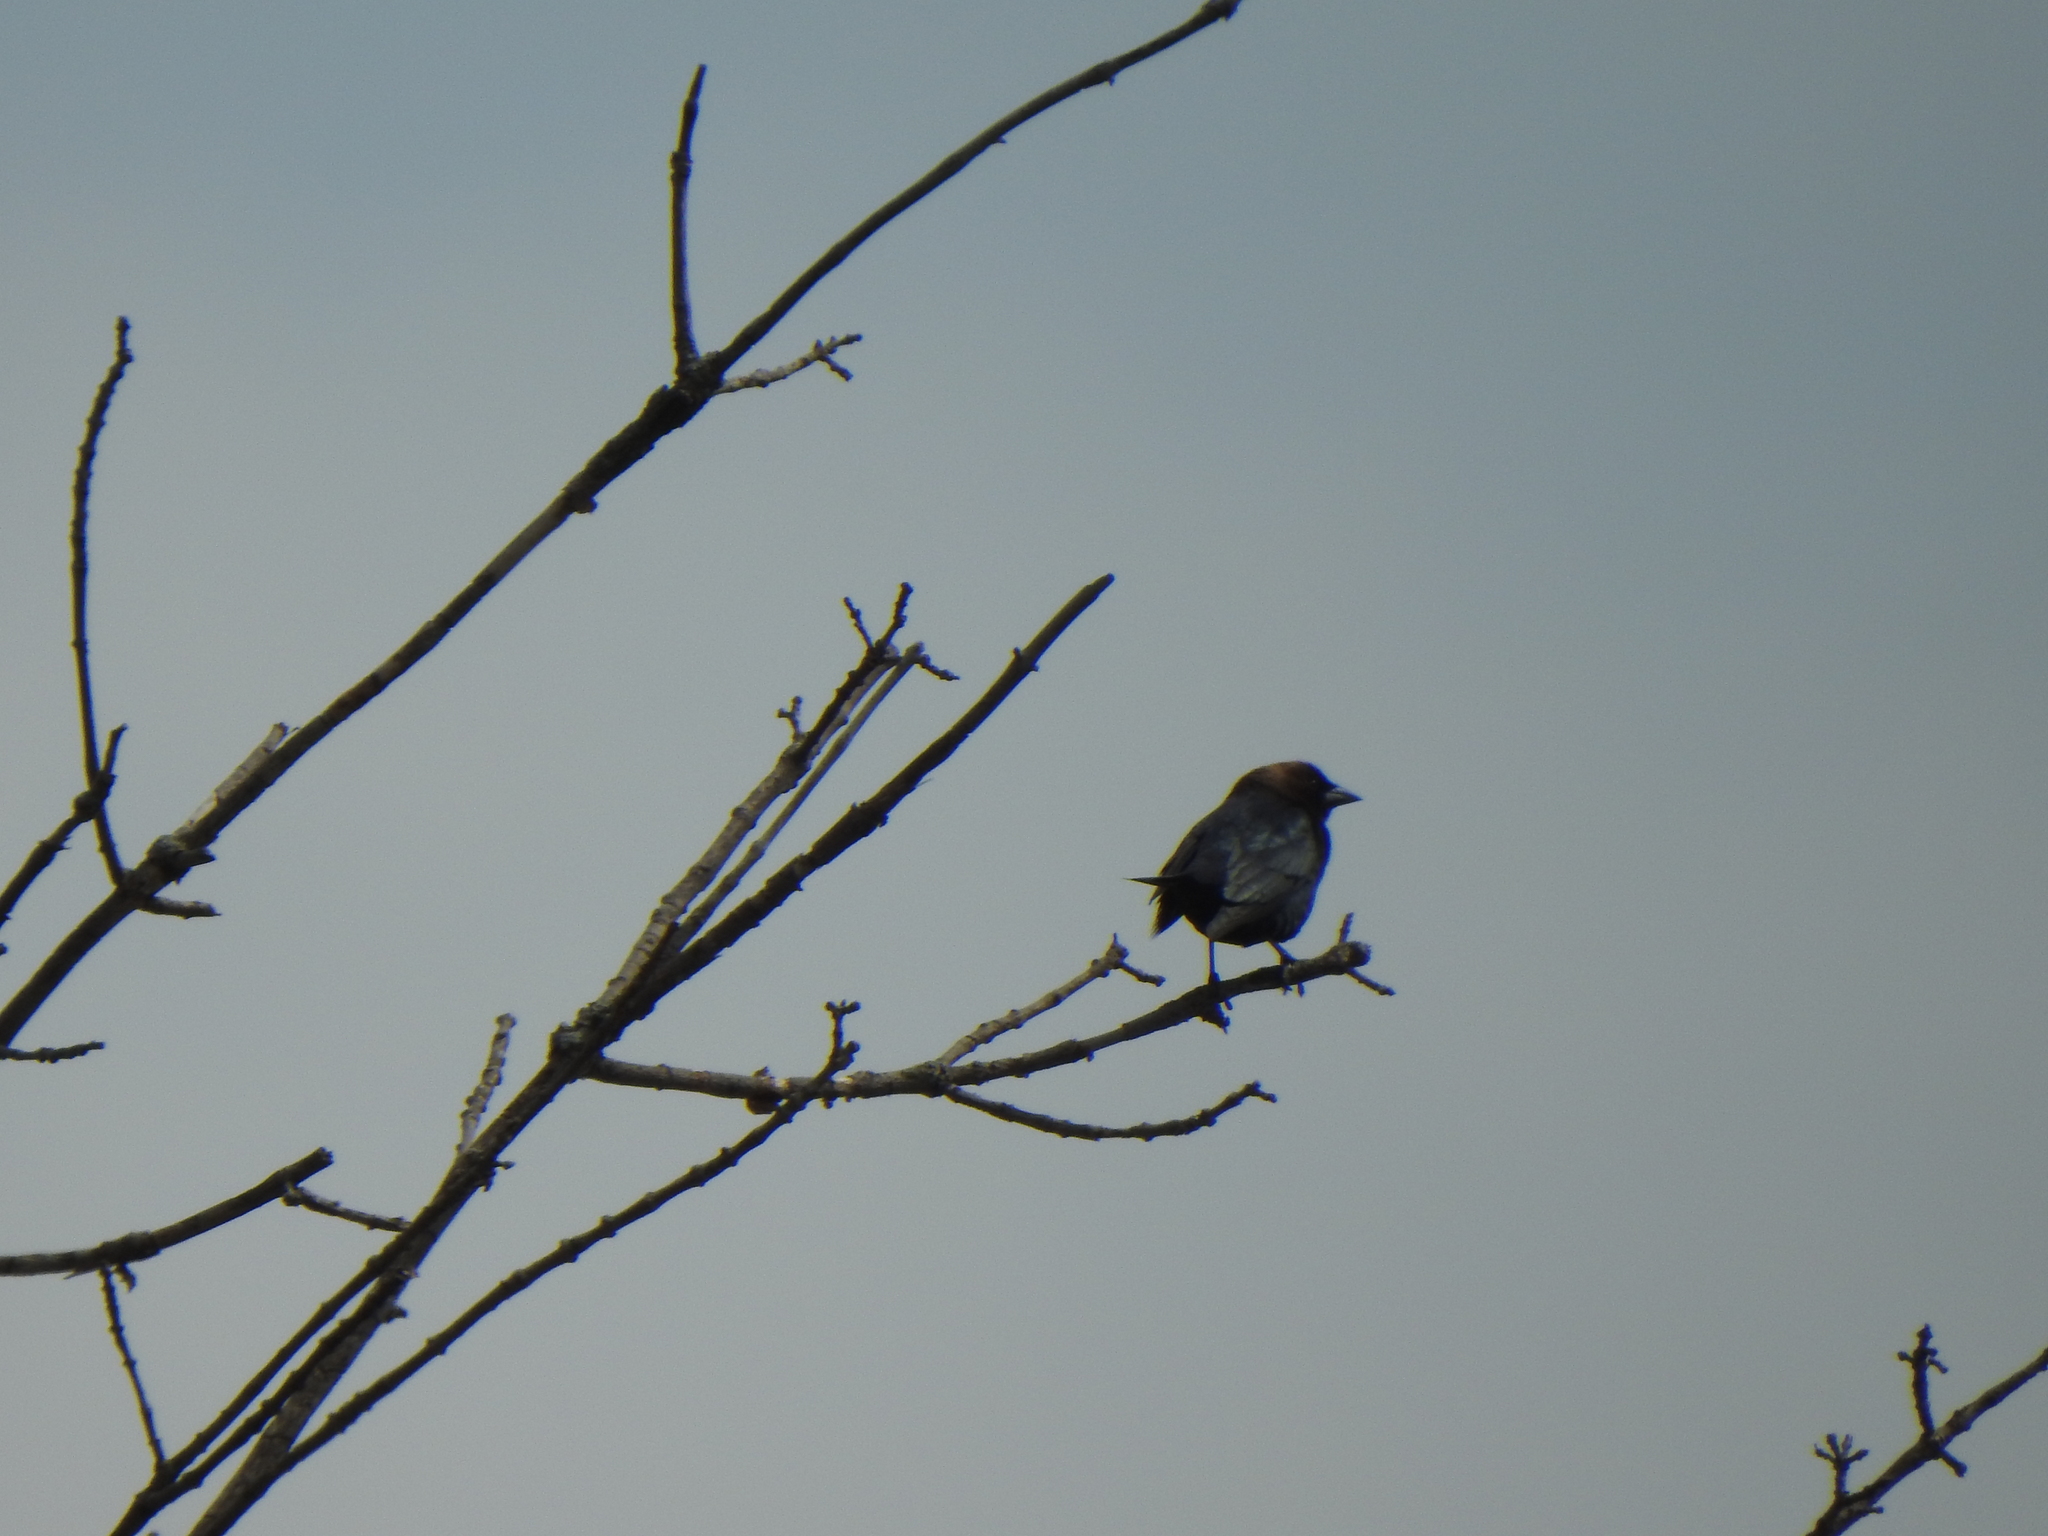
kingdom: Animalia
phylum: Chordata
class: Aves
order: Passeriformes
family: Icteridae
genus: Molothrus
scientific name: Molothrus ater
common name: Brown-headed cowbird
